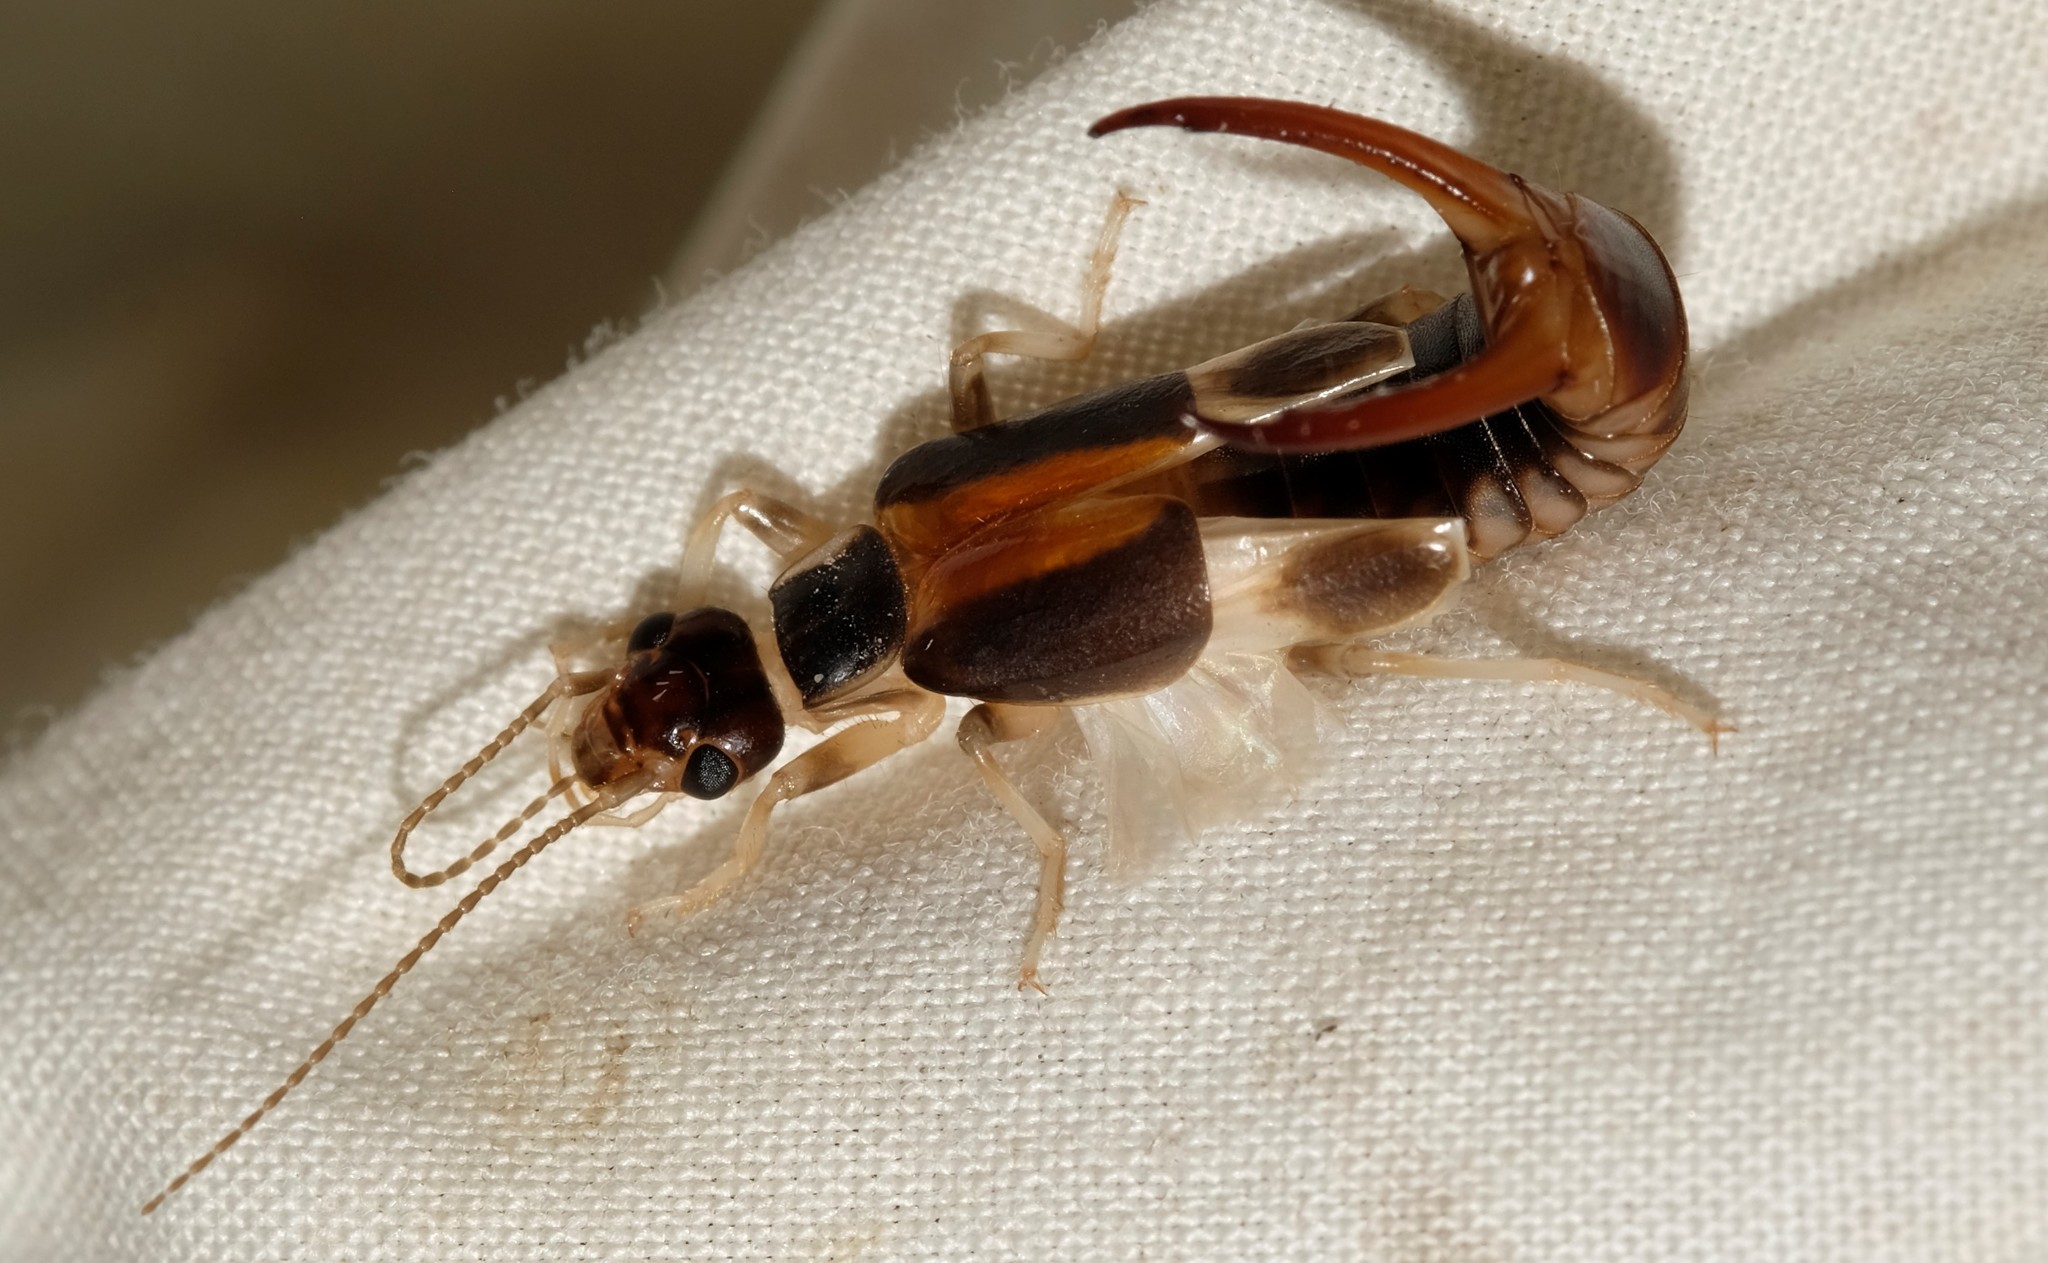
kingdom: Animalia
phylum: Arthropoda
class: Insecta
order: Dermaptera
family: Labiduridae
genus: Labidura
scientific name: Labidura riparia
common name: Striped earwig
